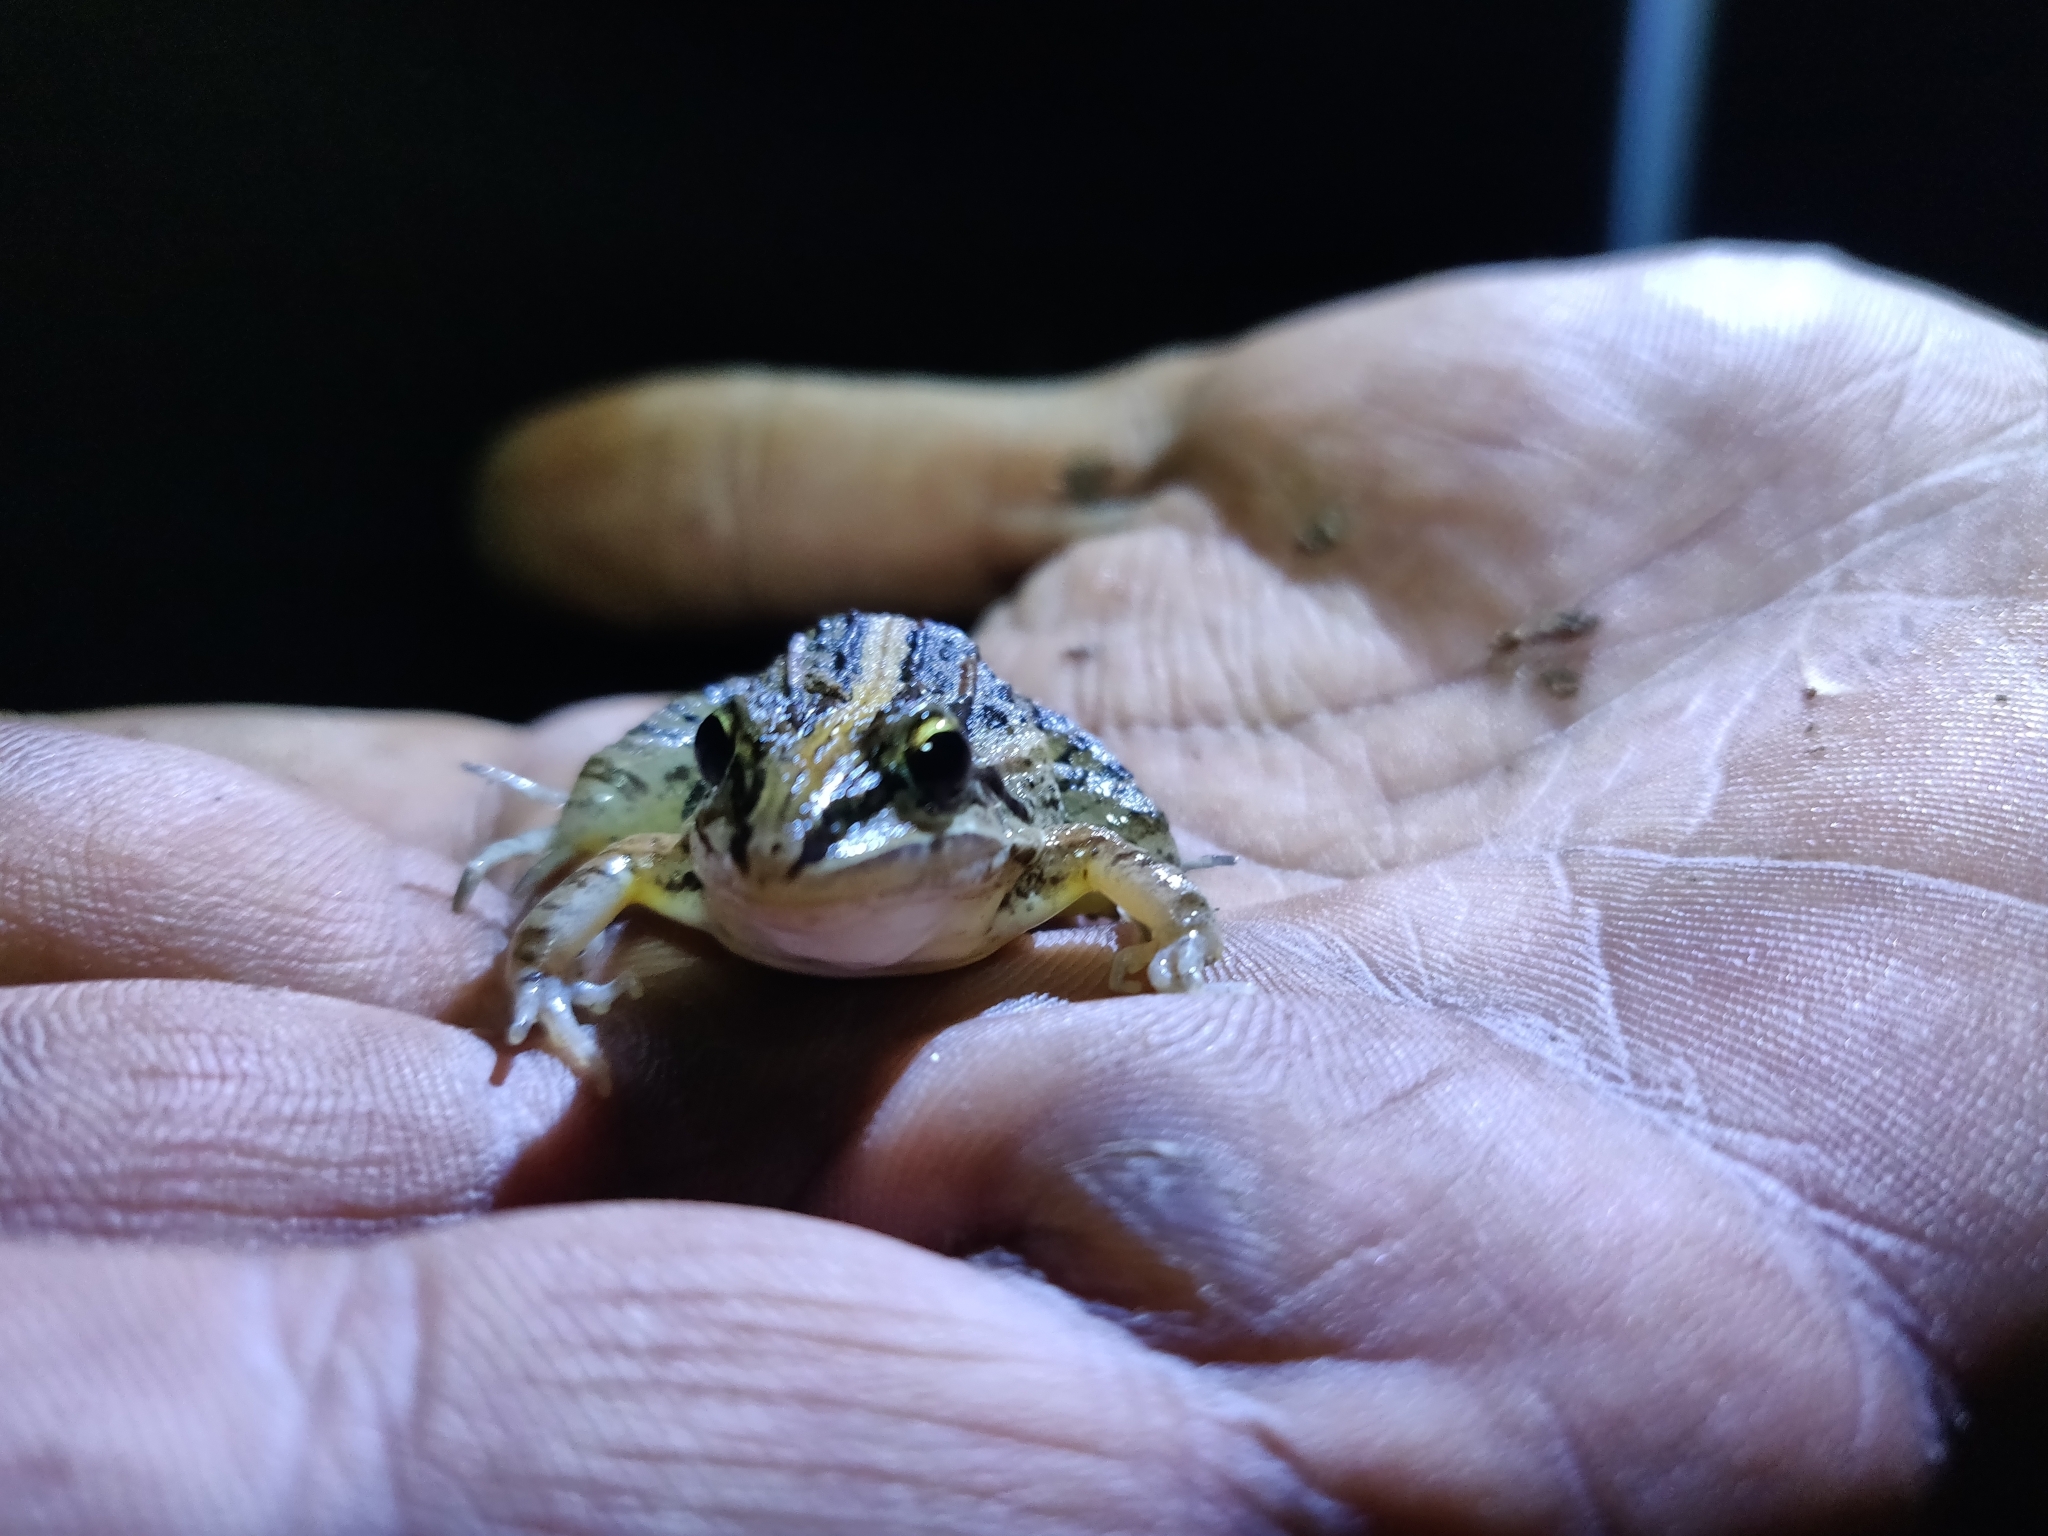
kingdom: Animalia
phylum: Chordata
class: Amphibia
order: Anura
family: Leptodactylidae
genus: Leptodactylus
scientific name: Leptodactylus fuscus
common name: Rufous frog
